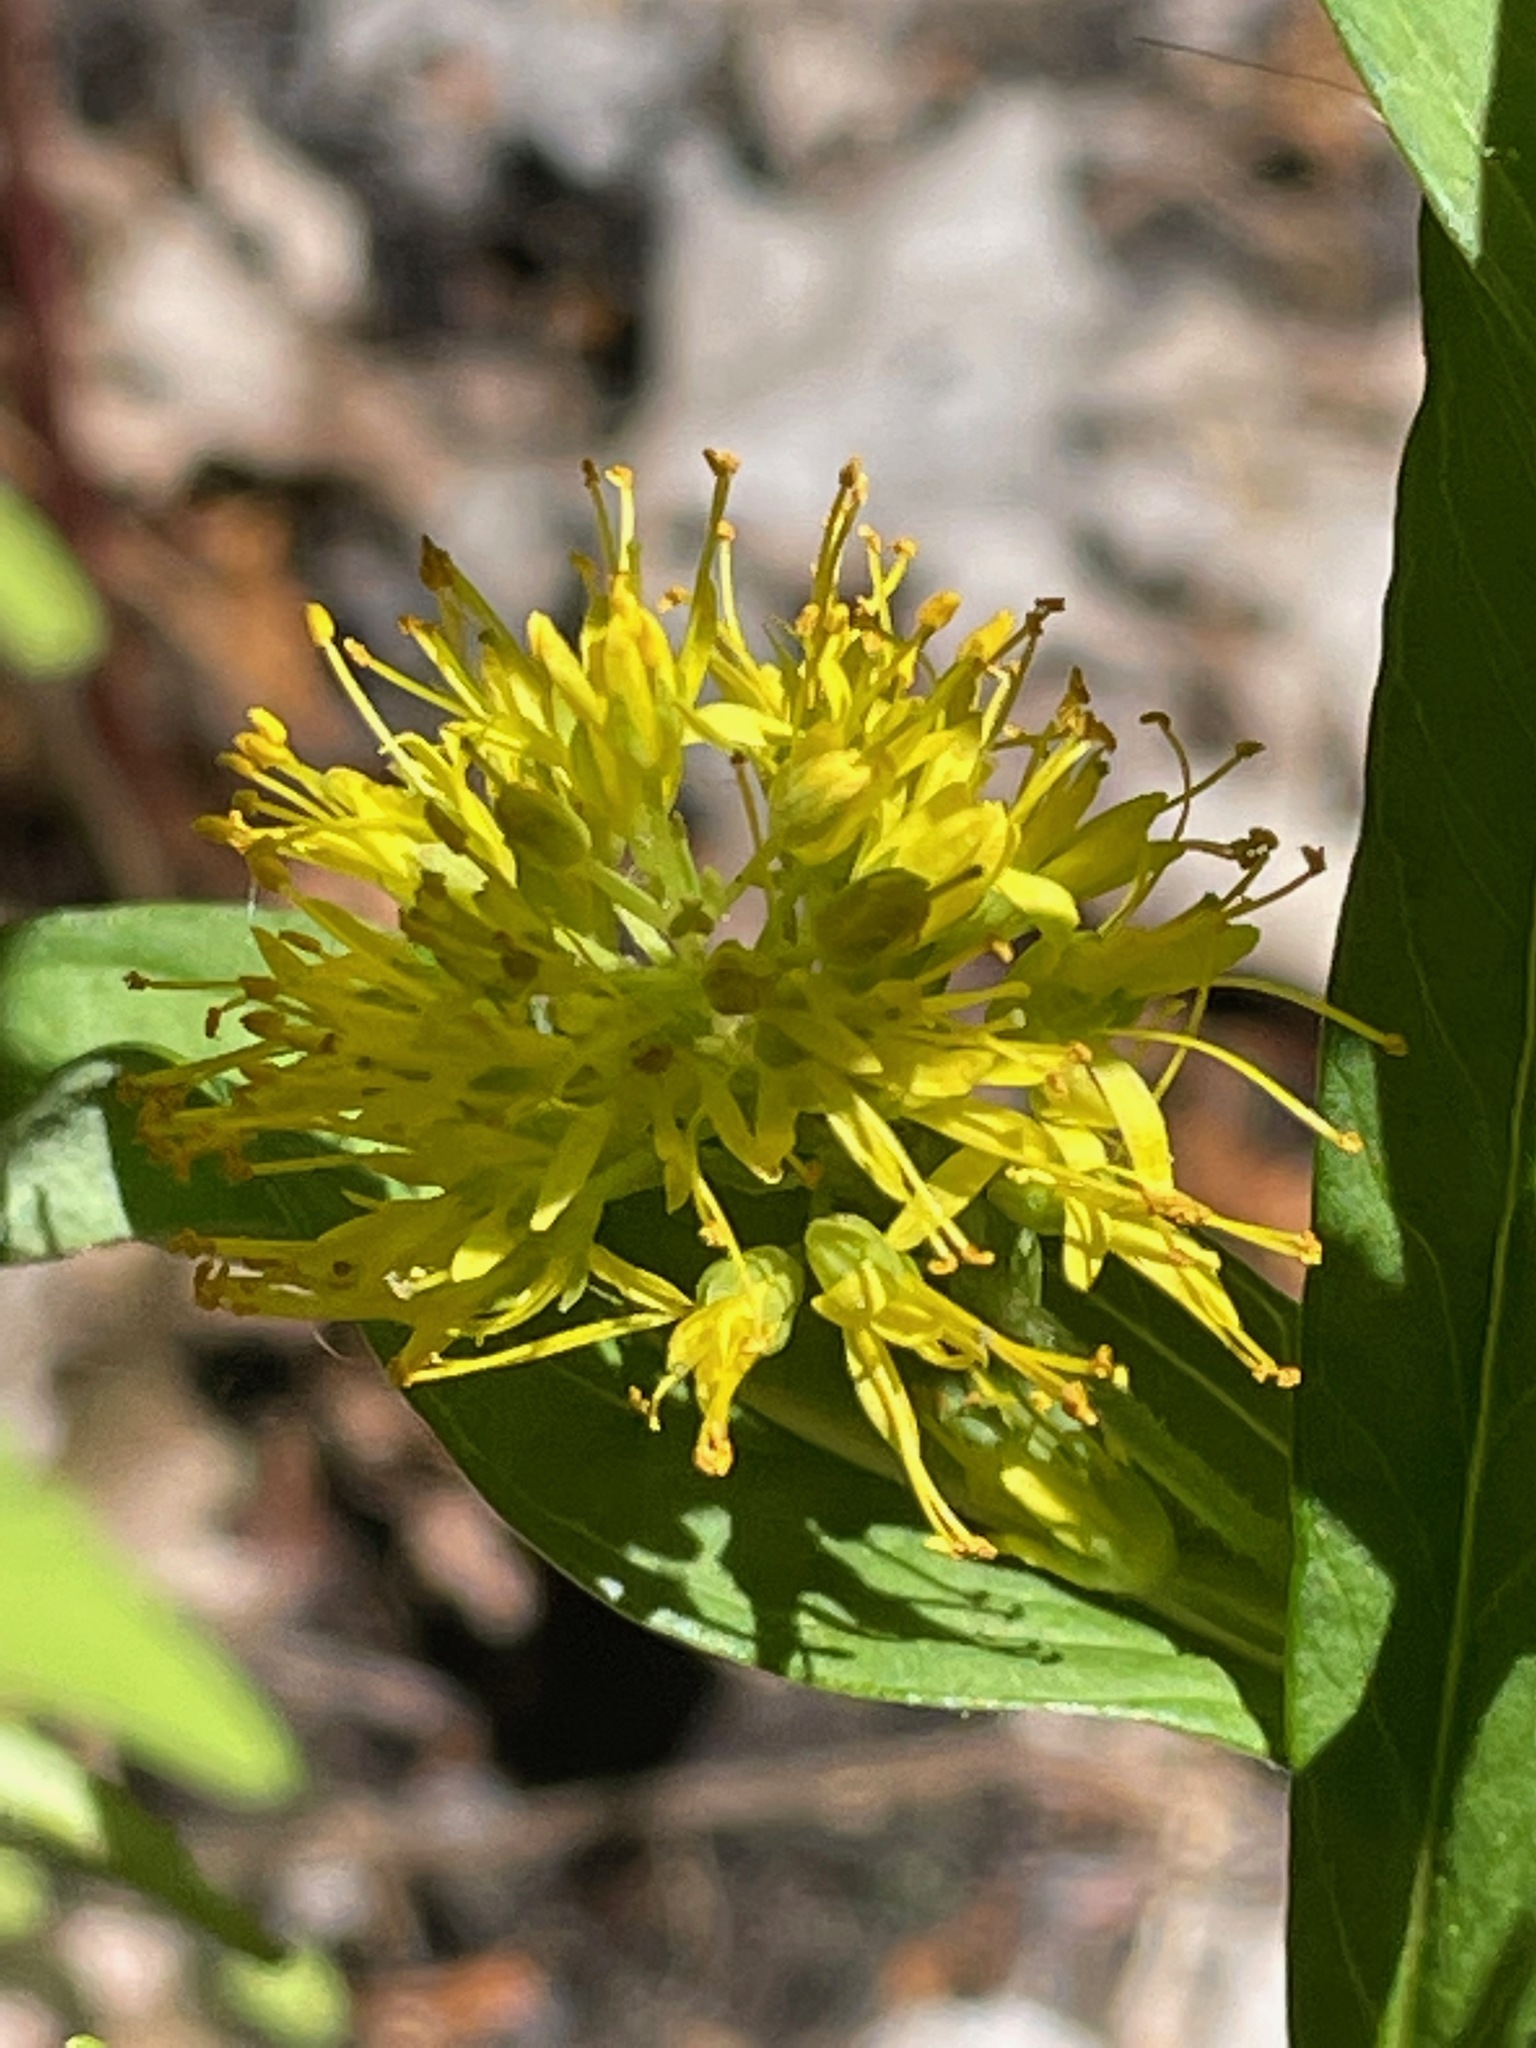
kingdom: Plantae
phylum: Tracheophyta
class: Magnoliopsida
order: Ericales
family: Primulaceae
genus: Lysimachia
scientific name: Lysimachia thyrsiflora
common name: Tufted loosestrife
